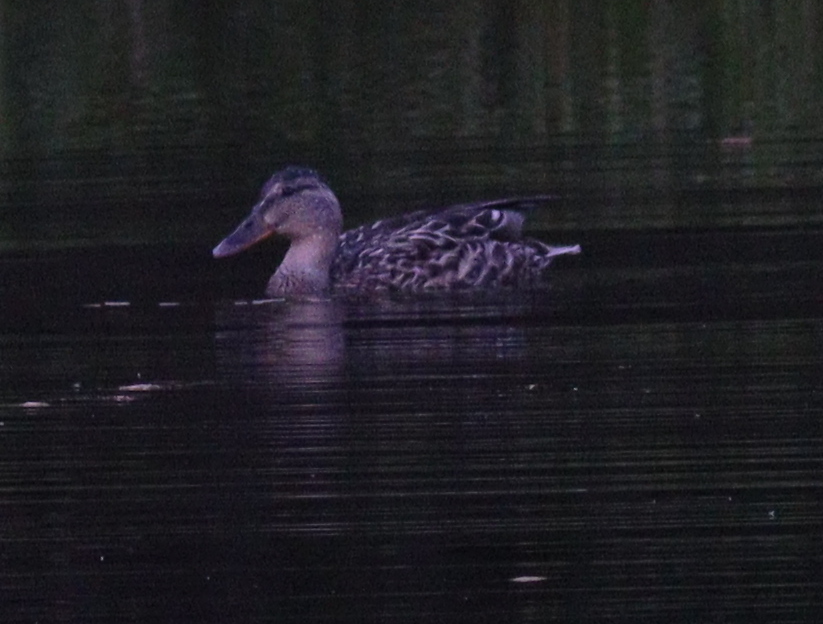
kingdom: Animalia
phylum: Chordata
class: Aves
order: Anseriformes
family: Anatidae
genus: Anas
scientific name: Anas platyrhynchos
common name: Mallard
